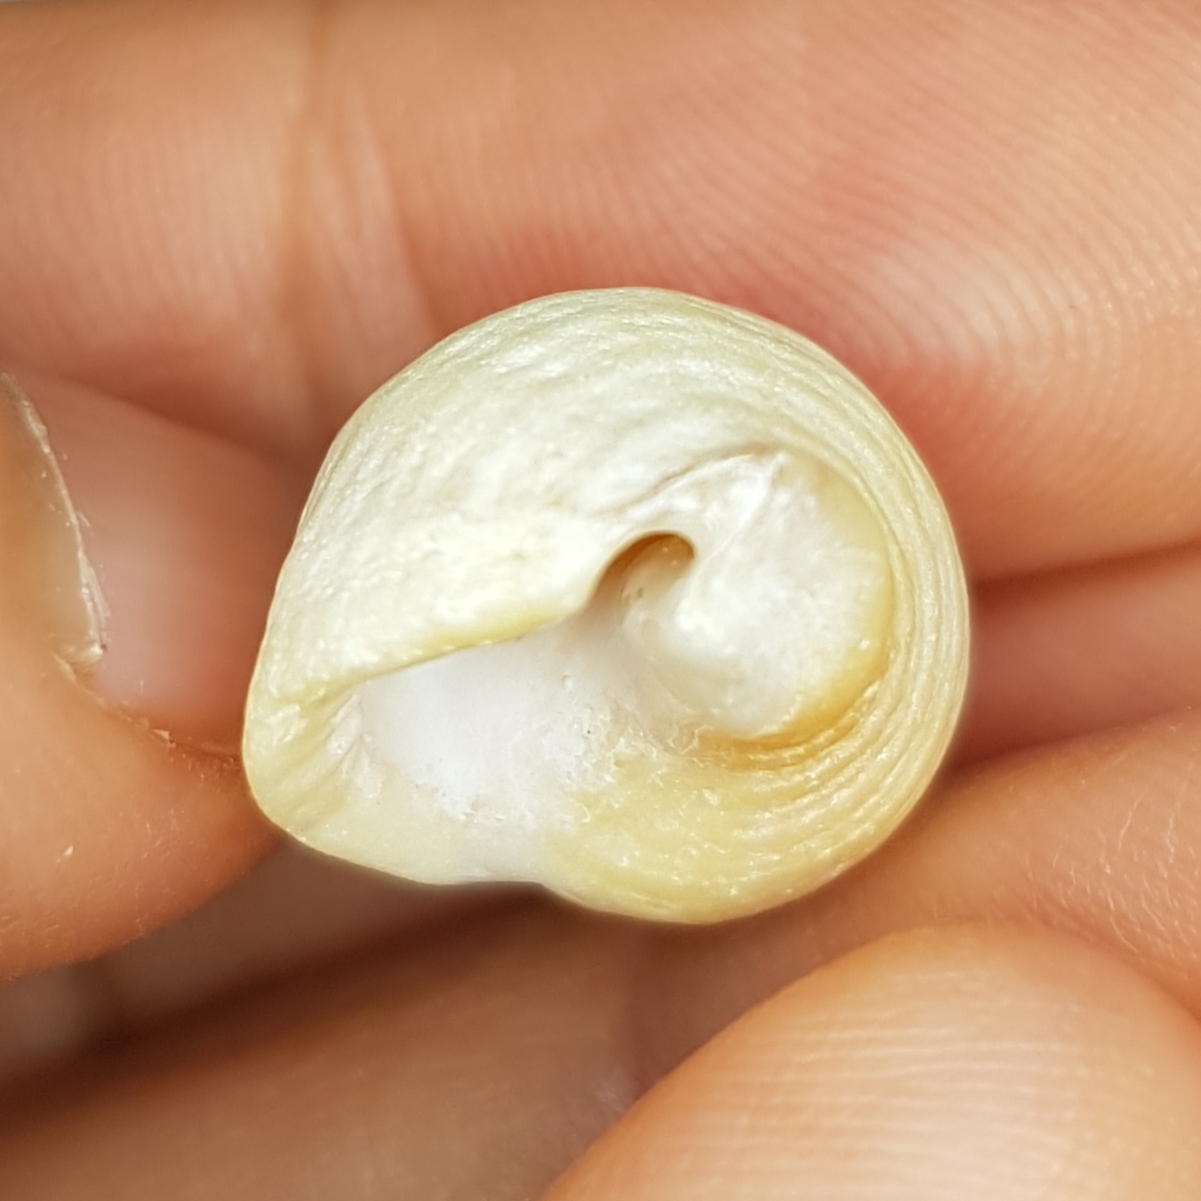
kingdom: Animalia
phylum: Mollusca
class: Gastropoda
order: Neogastropoda
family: Muricidae
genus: Nucella
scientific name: Nucella lapillus
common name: Dog whelk
